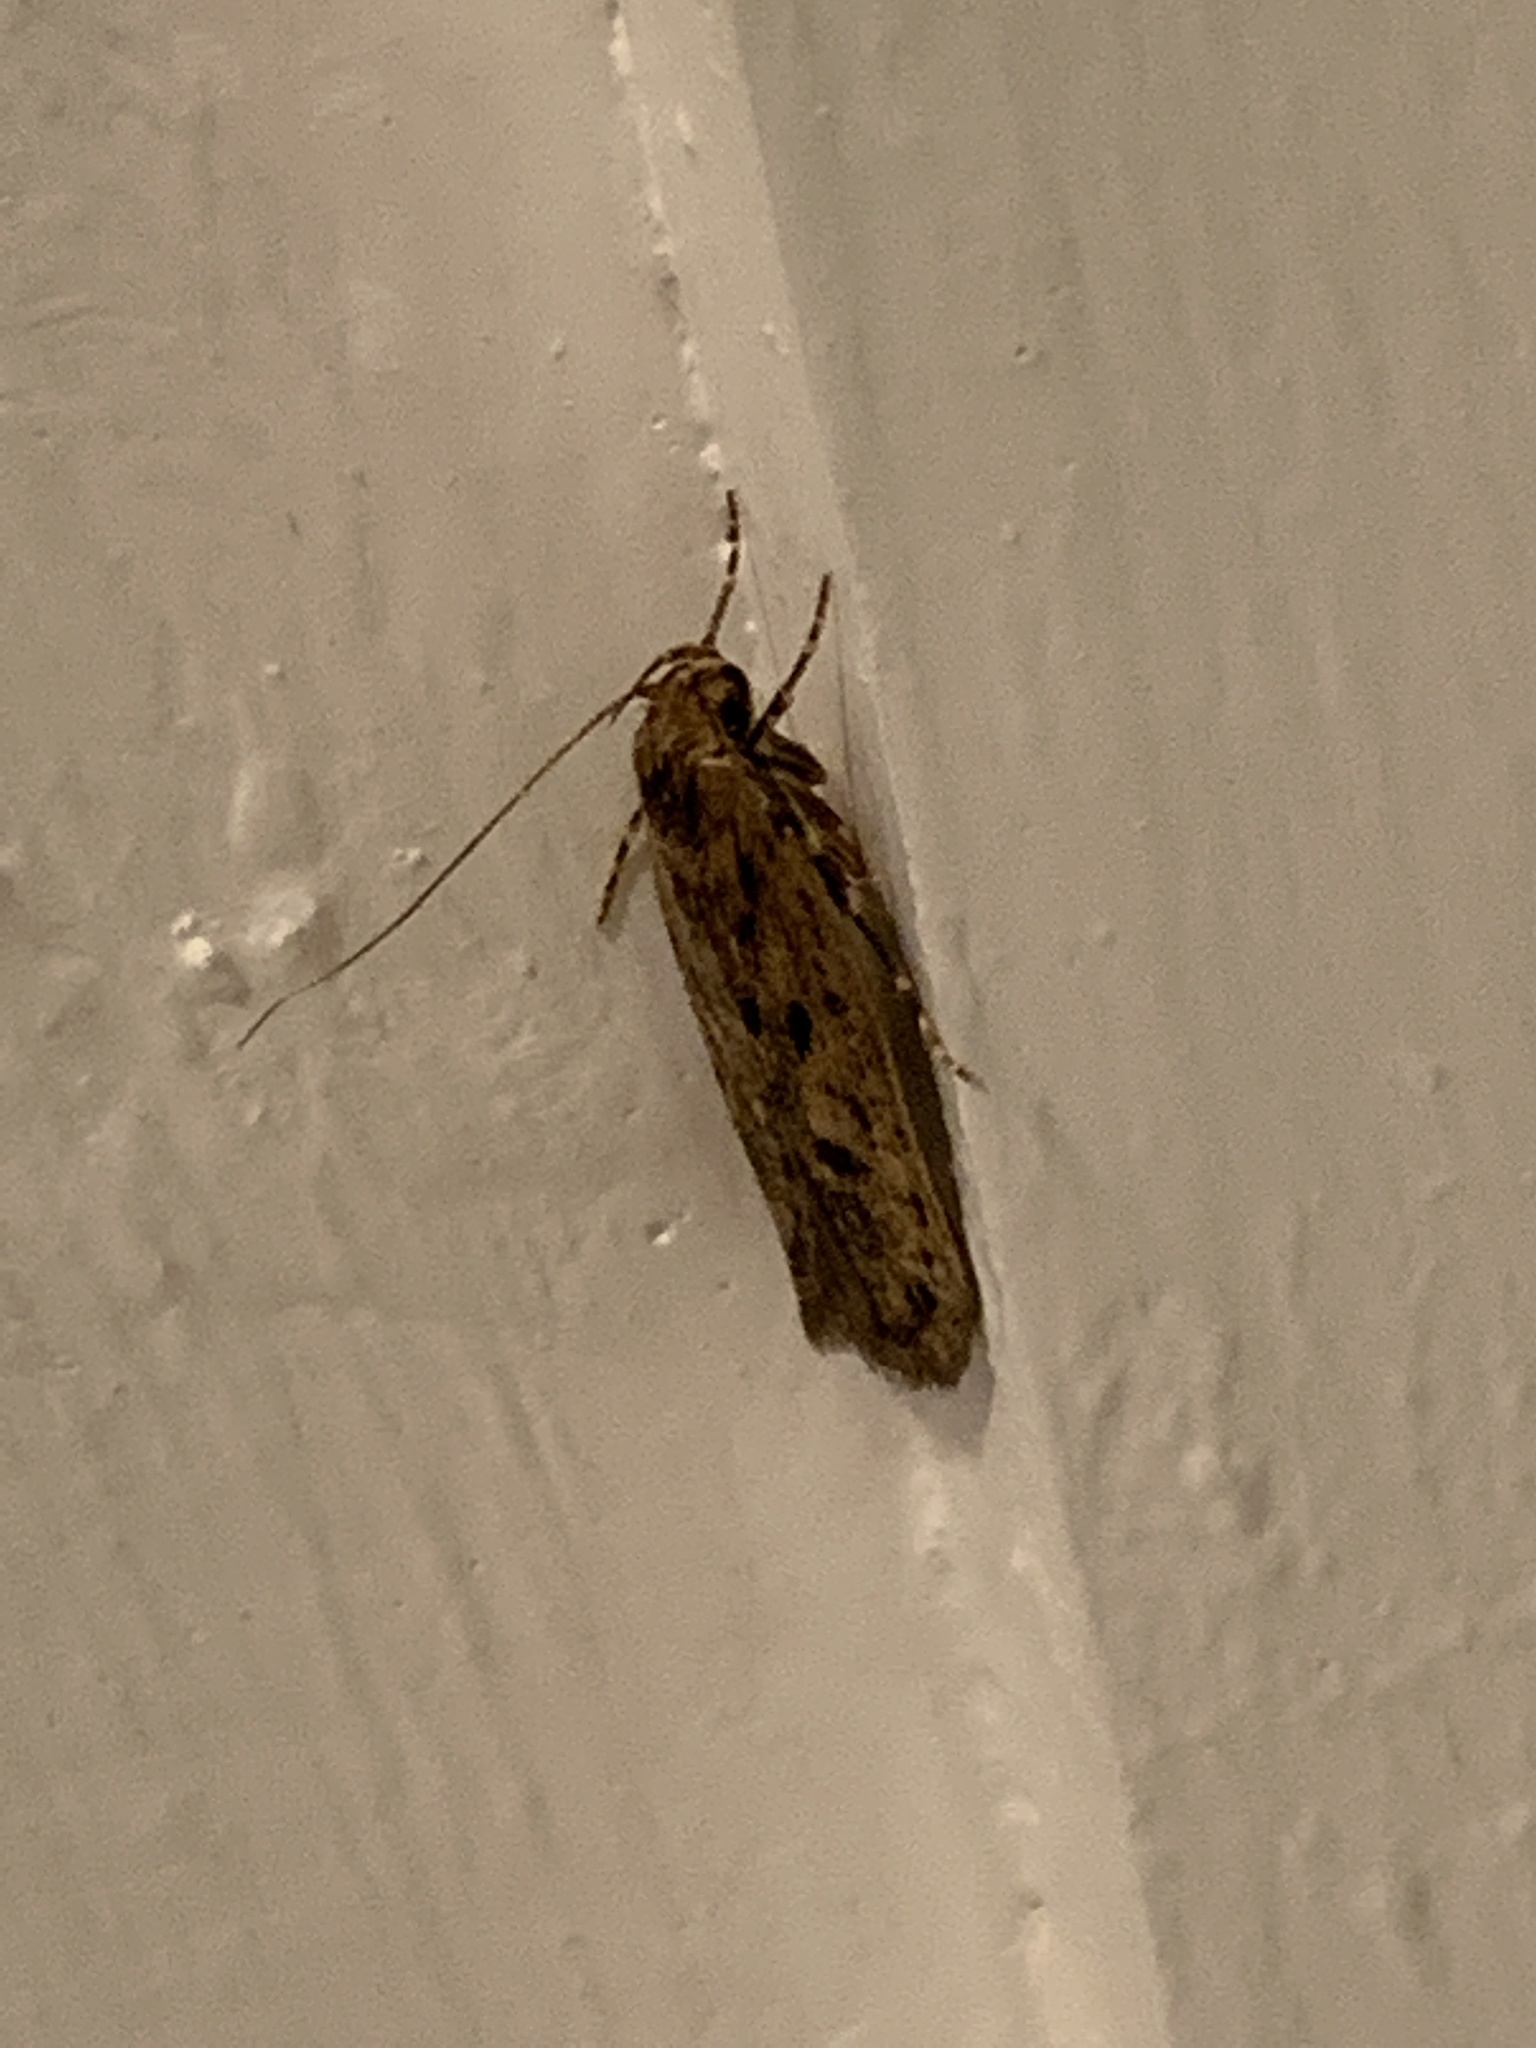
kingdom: Animalia
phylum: Arthropoda
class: Insecta
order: Lepidoptera
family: Oecophoridae
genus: Hofmannophila
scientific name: Hofmannophila pseudospretella
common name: Brown house moth
